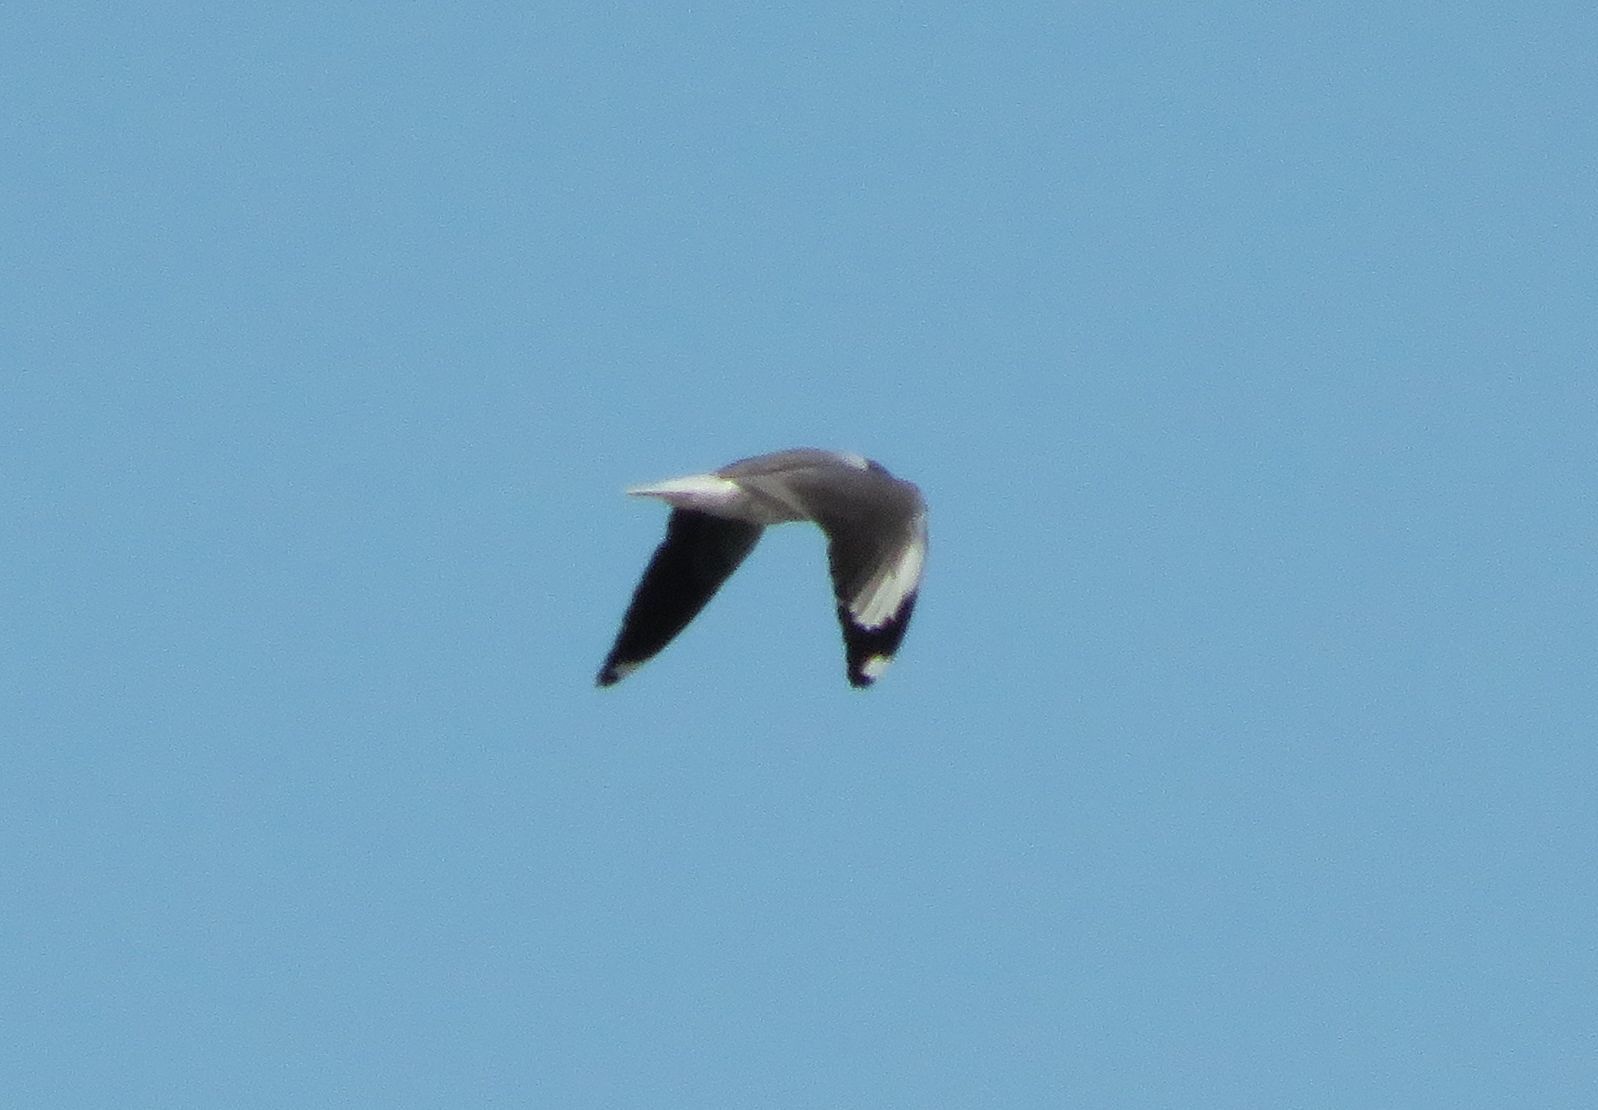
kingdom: Animalia
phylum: Chordata
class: Aves
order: Charadriiformes
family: Laridae
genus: Chroicocephalus
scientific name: Chroicocephalus cirrocephalus
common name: Grey-headed gull
